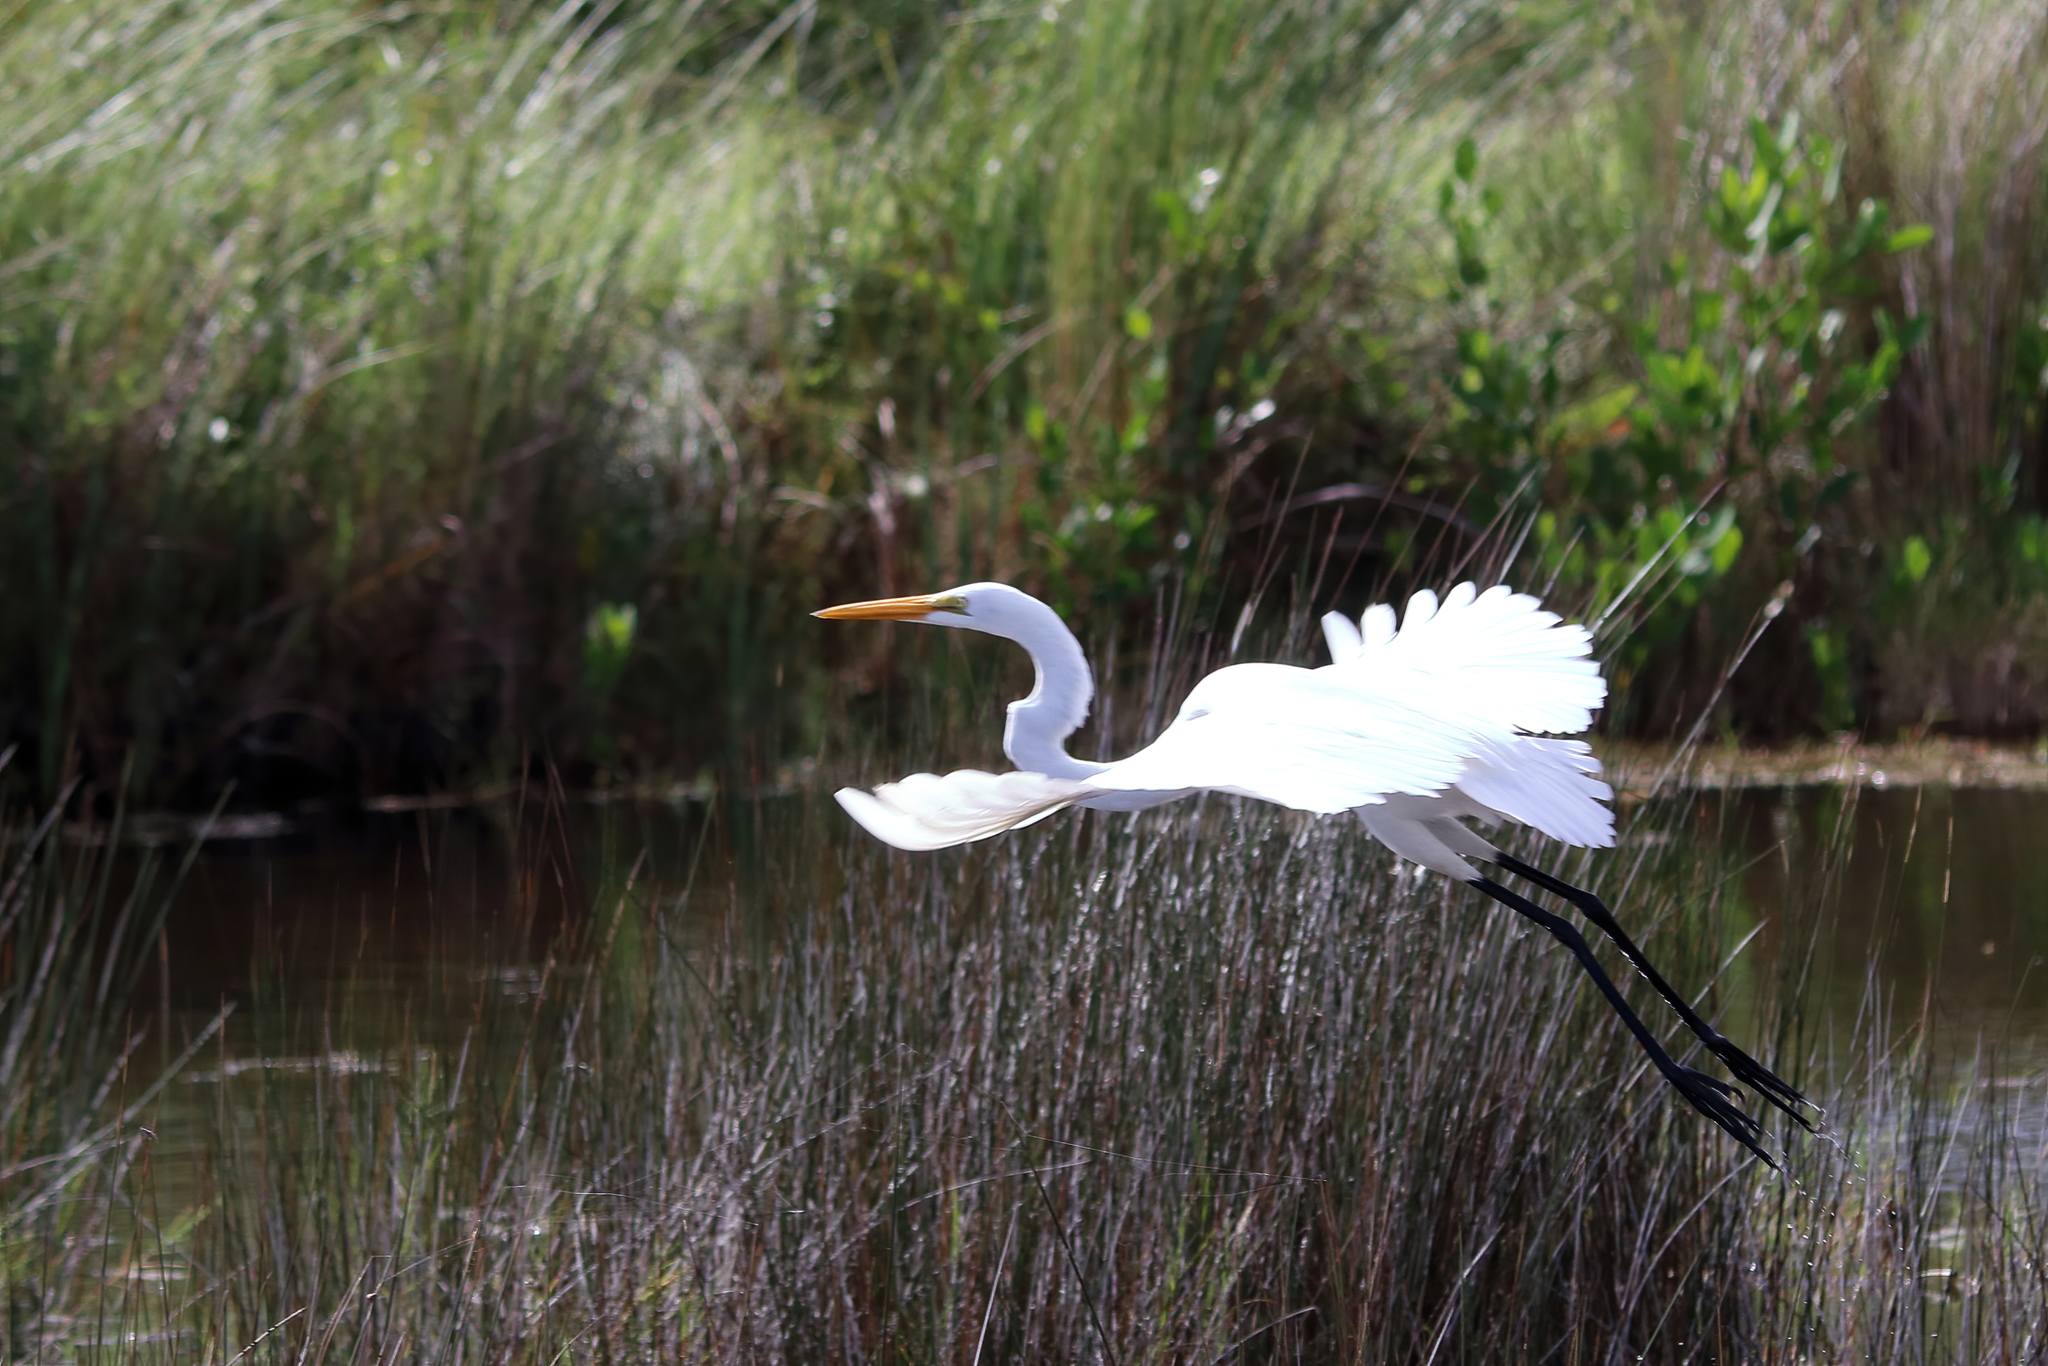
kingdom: Animalia
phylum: Chordata
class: Aves
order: Pelecaniformes
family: Ardeidae
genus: Ardea
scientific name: Ardea alba
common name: Great egret
